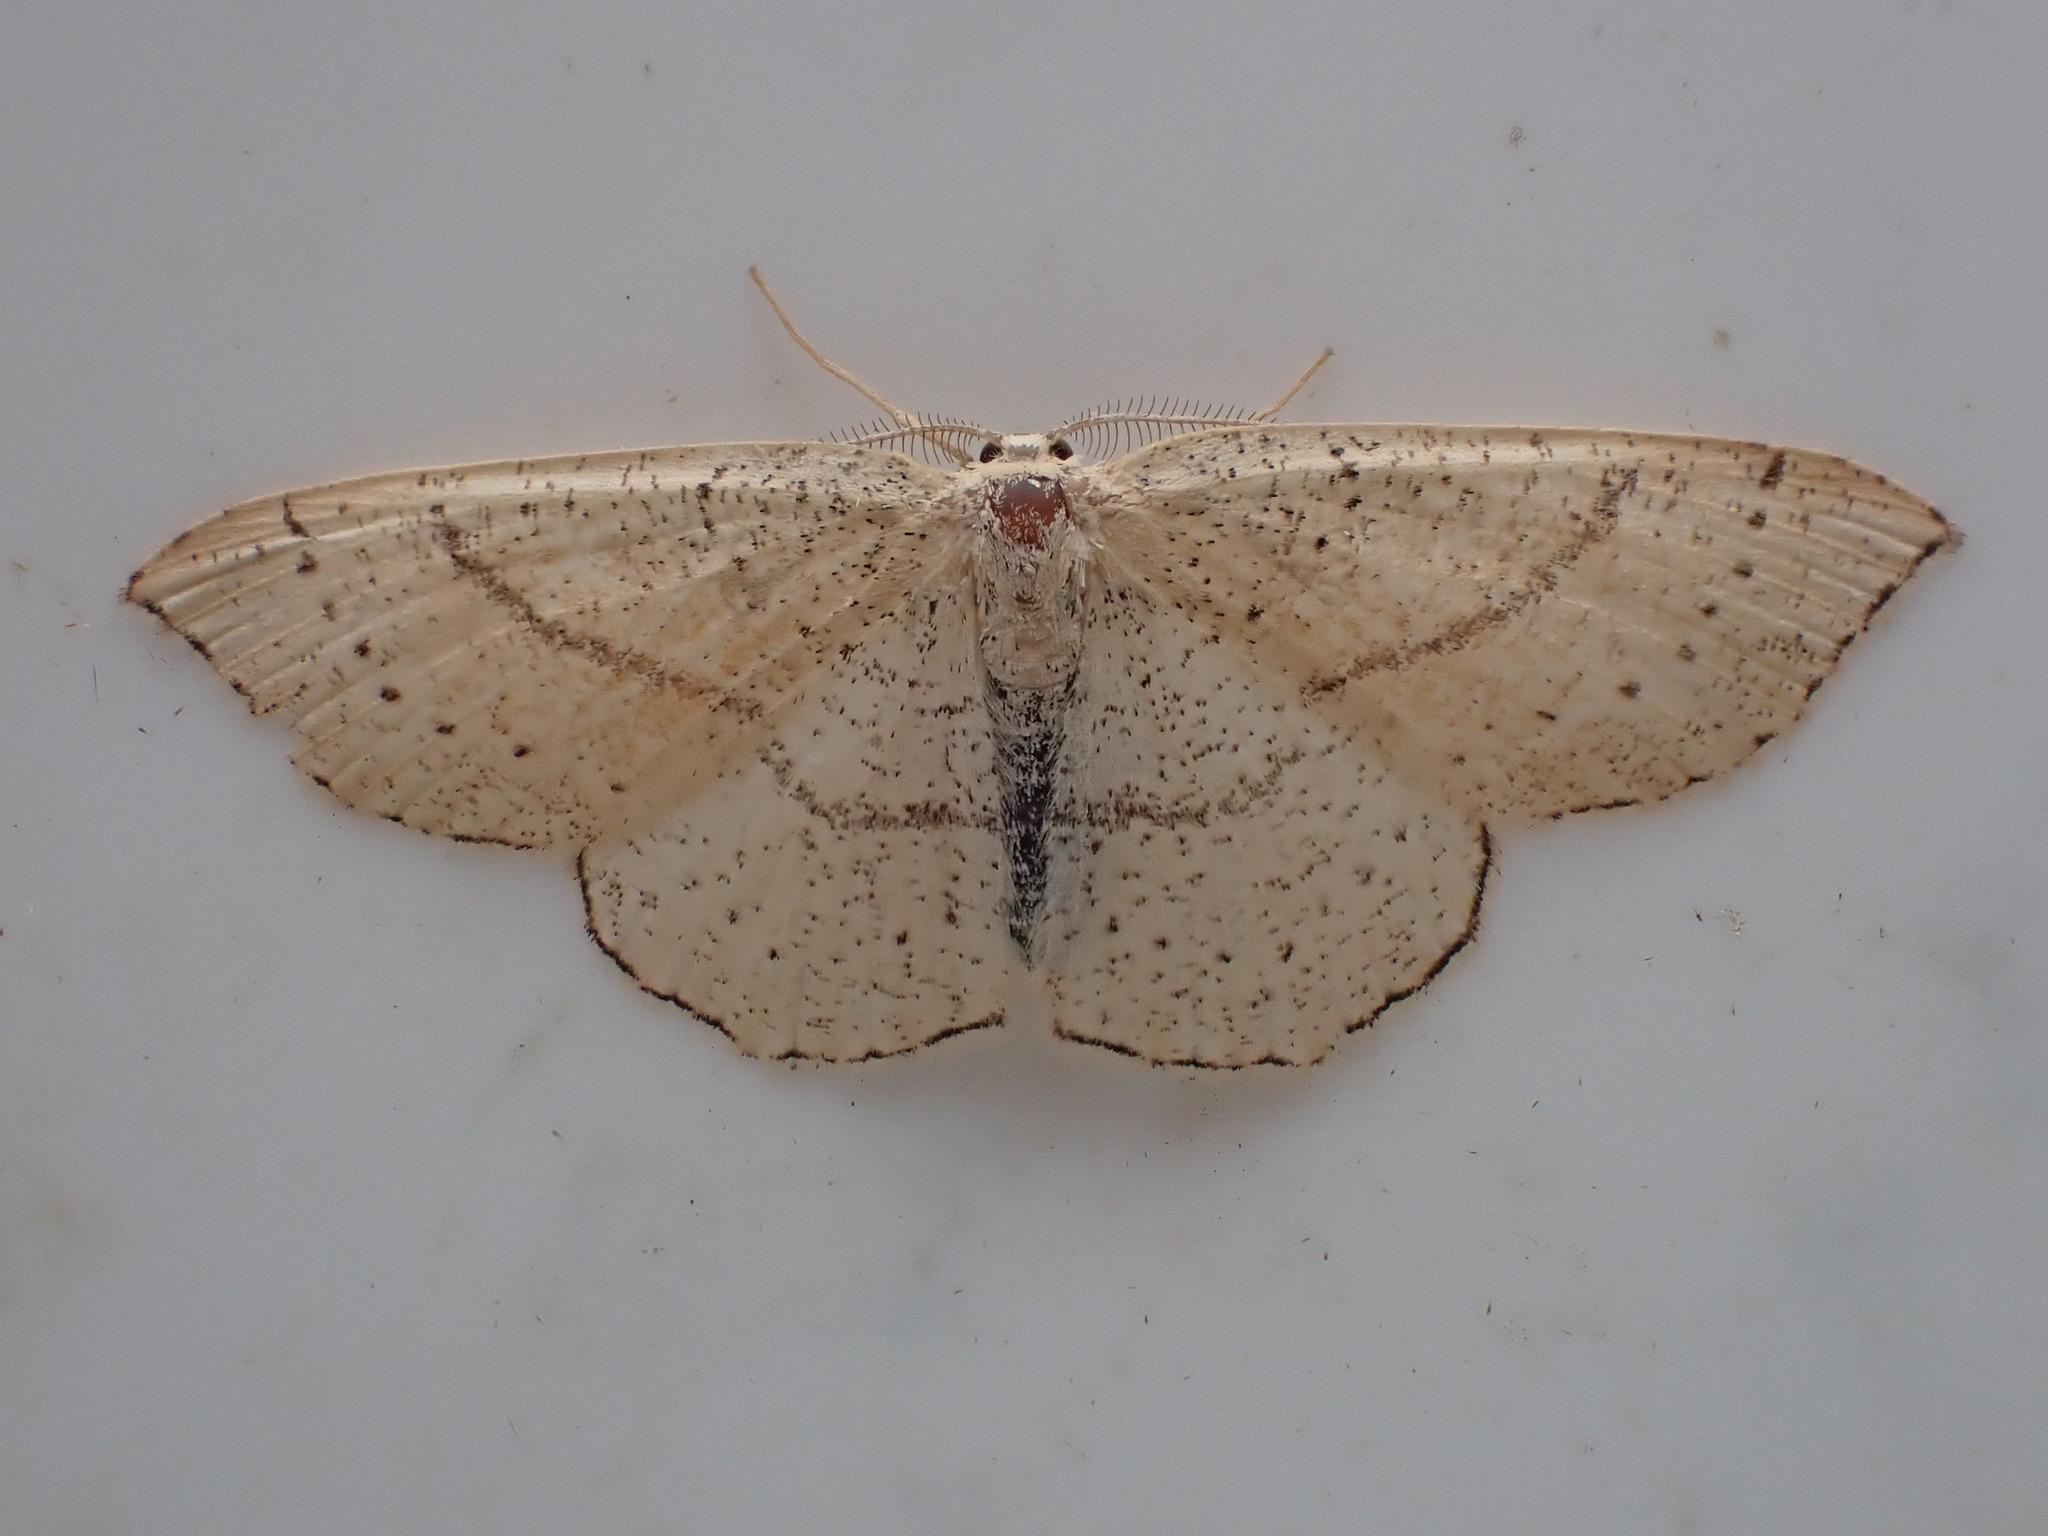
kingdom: Animalia
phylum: Arthropoda
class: Insecta
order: Lepidoptera
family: Geometridae
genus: Cyclophora
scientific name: Cyclophora punctaria
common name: Maiden's blush
